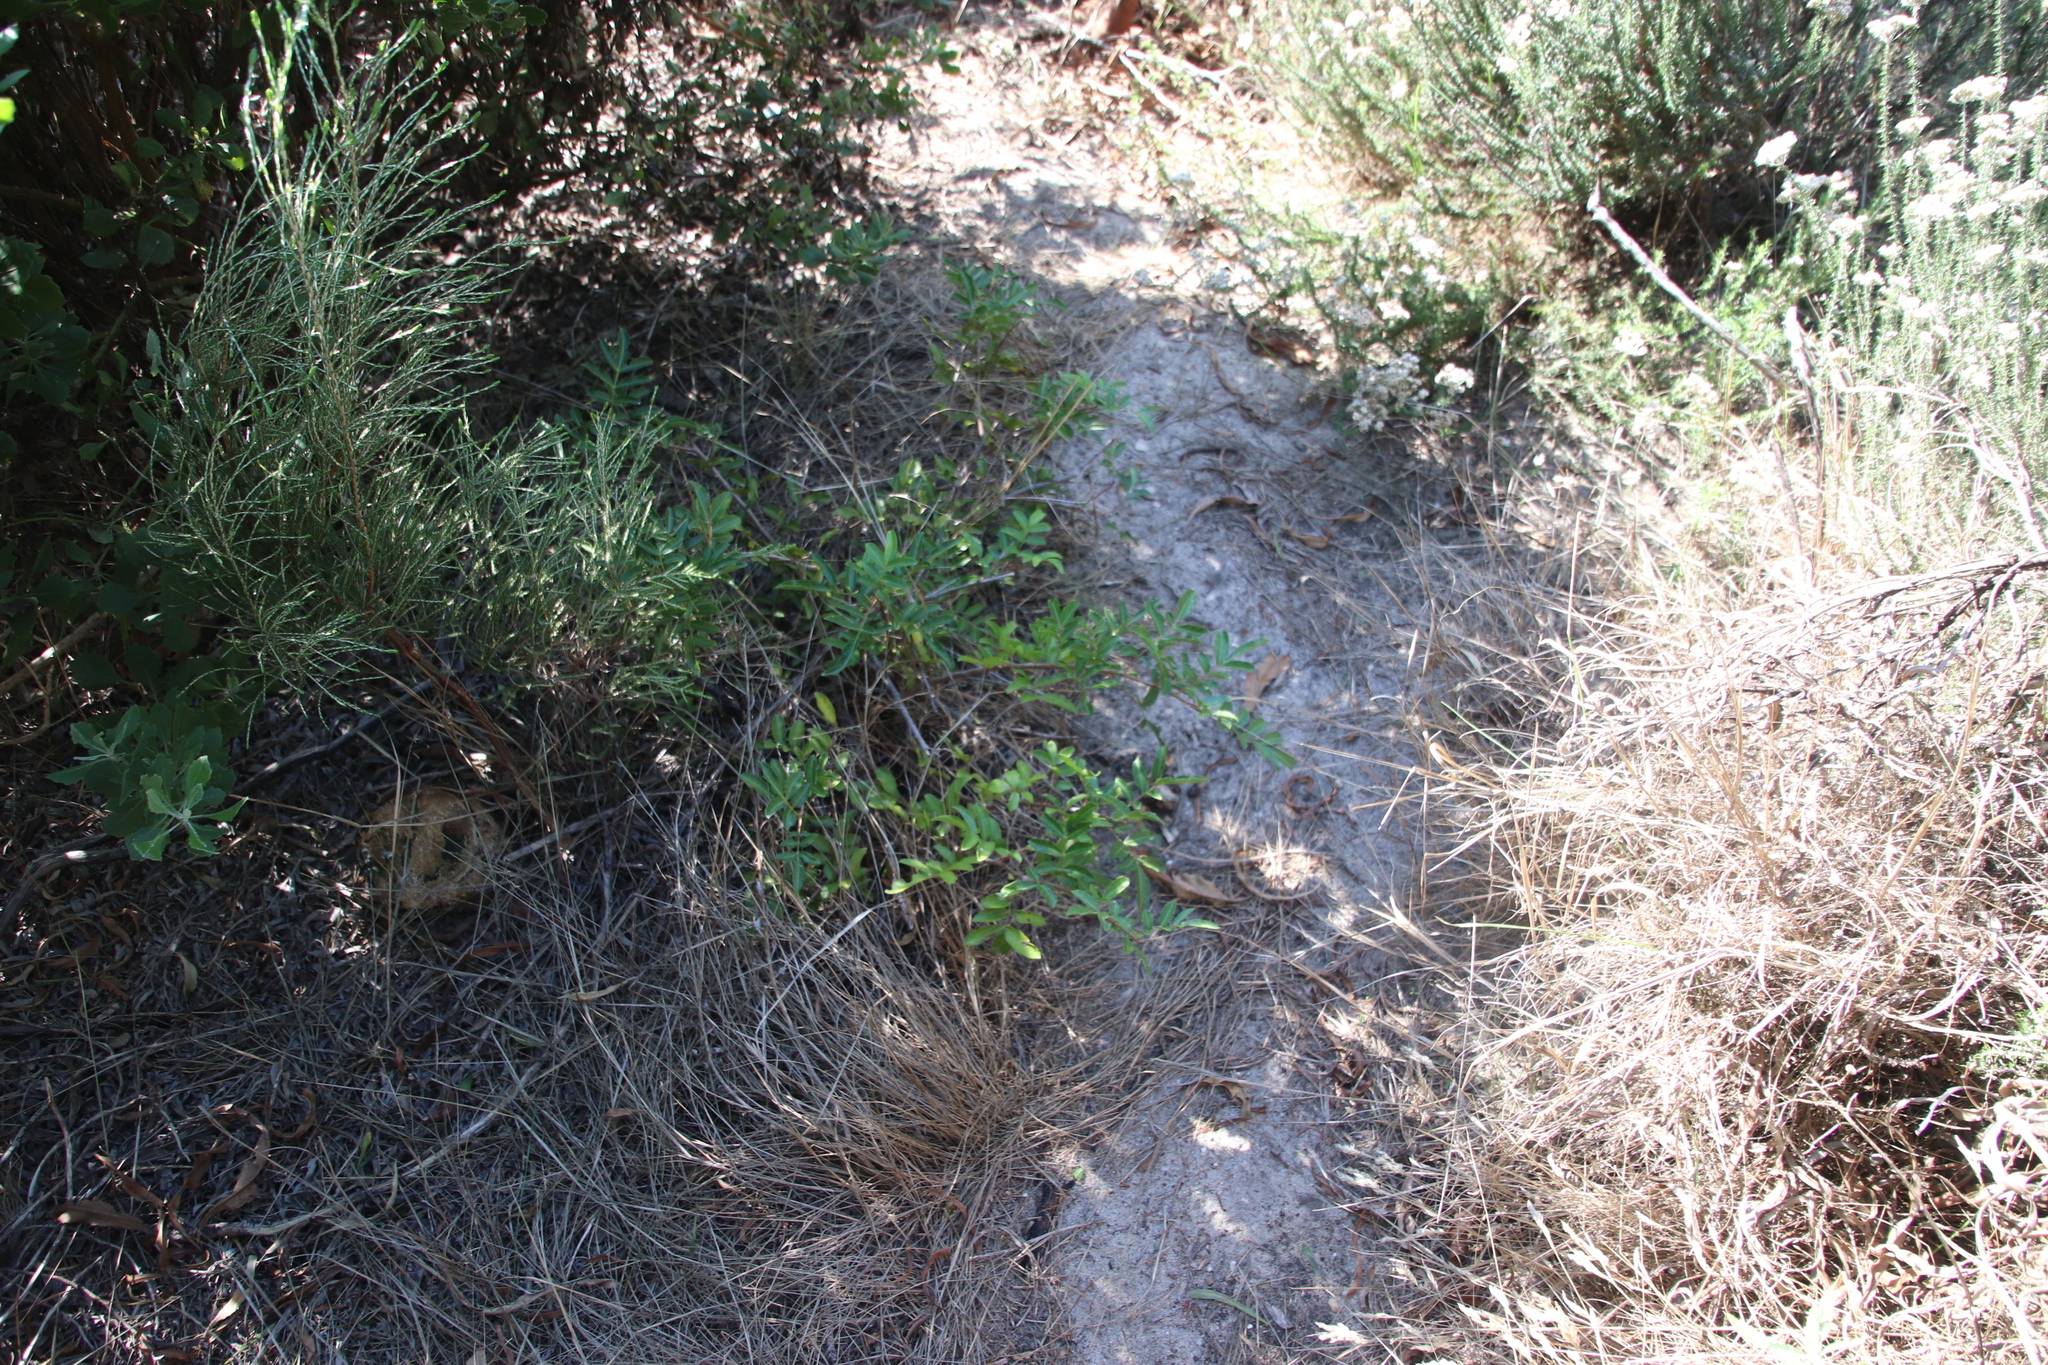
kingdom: Plantae
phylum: Tracheophyta
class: Magnoliopsida
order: Sapindales
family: Anacardiaceae
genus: Schinus
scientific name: Schinus terebinthifolia
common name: Brazilian peppertree
